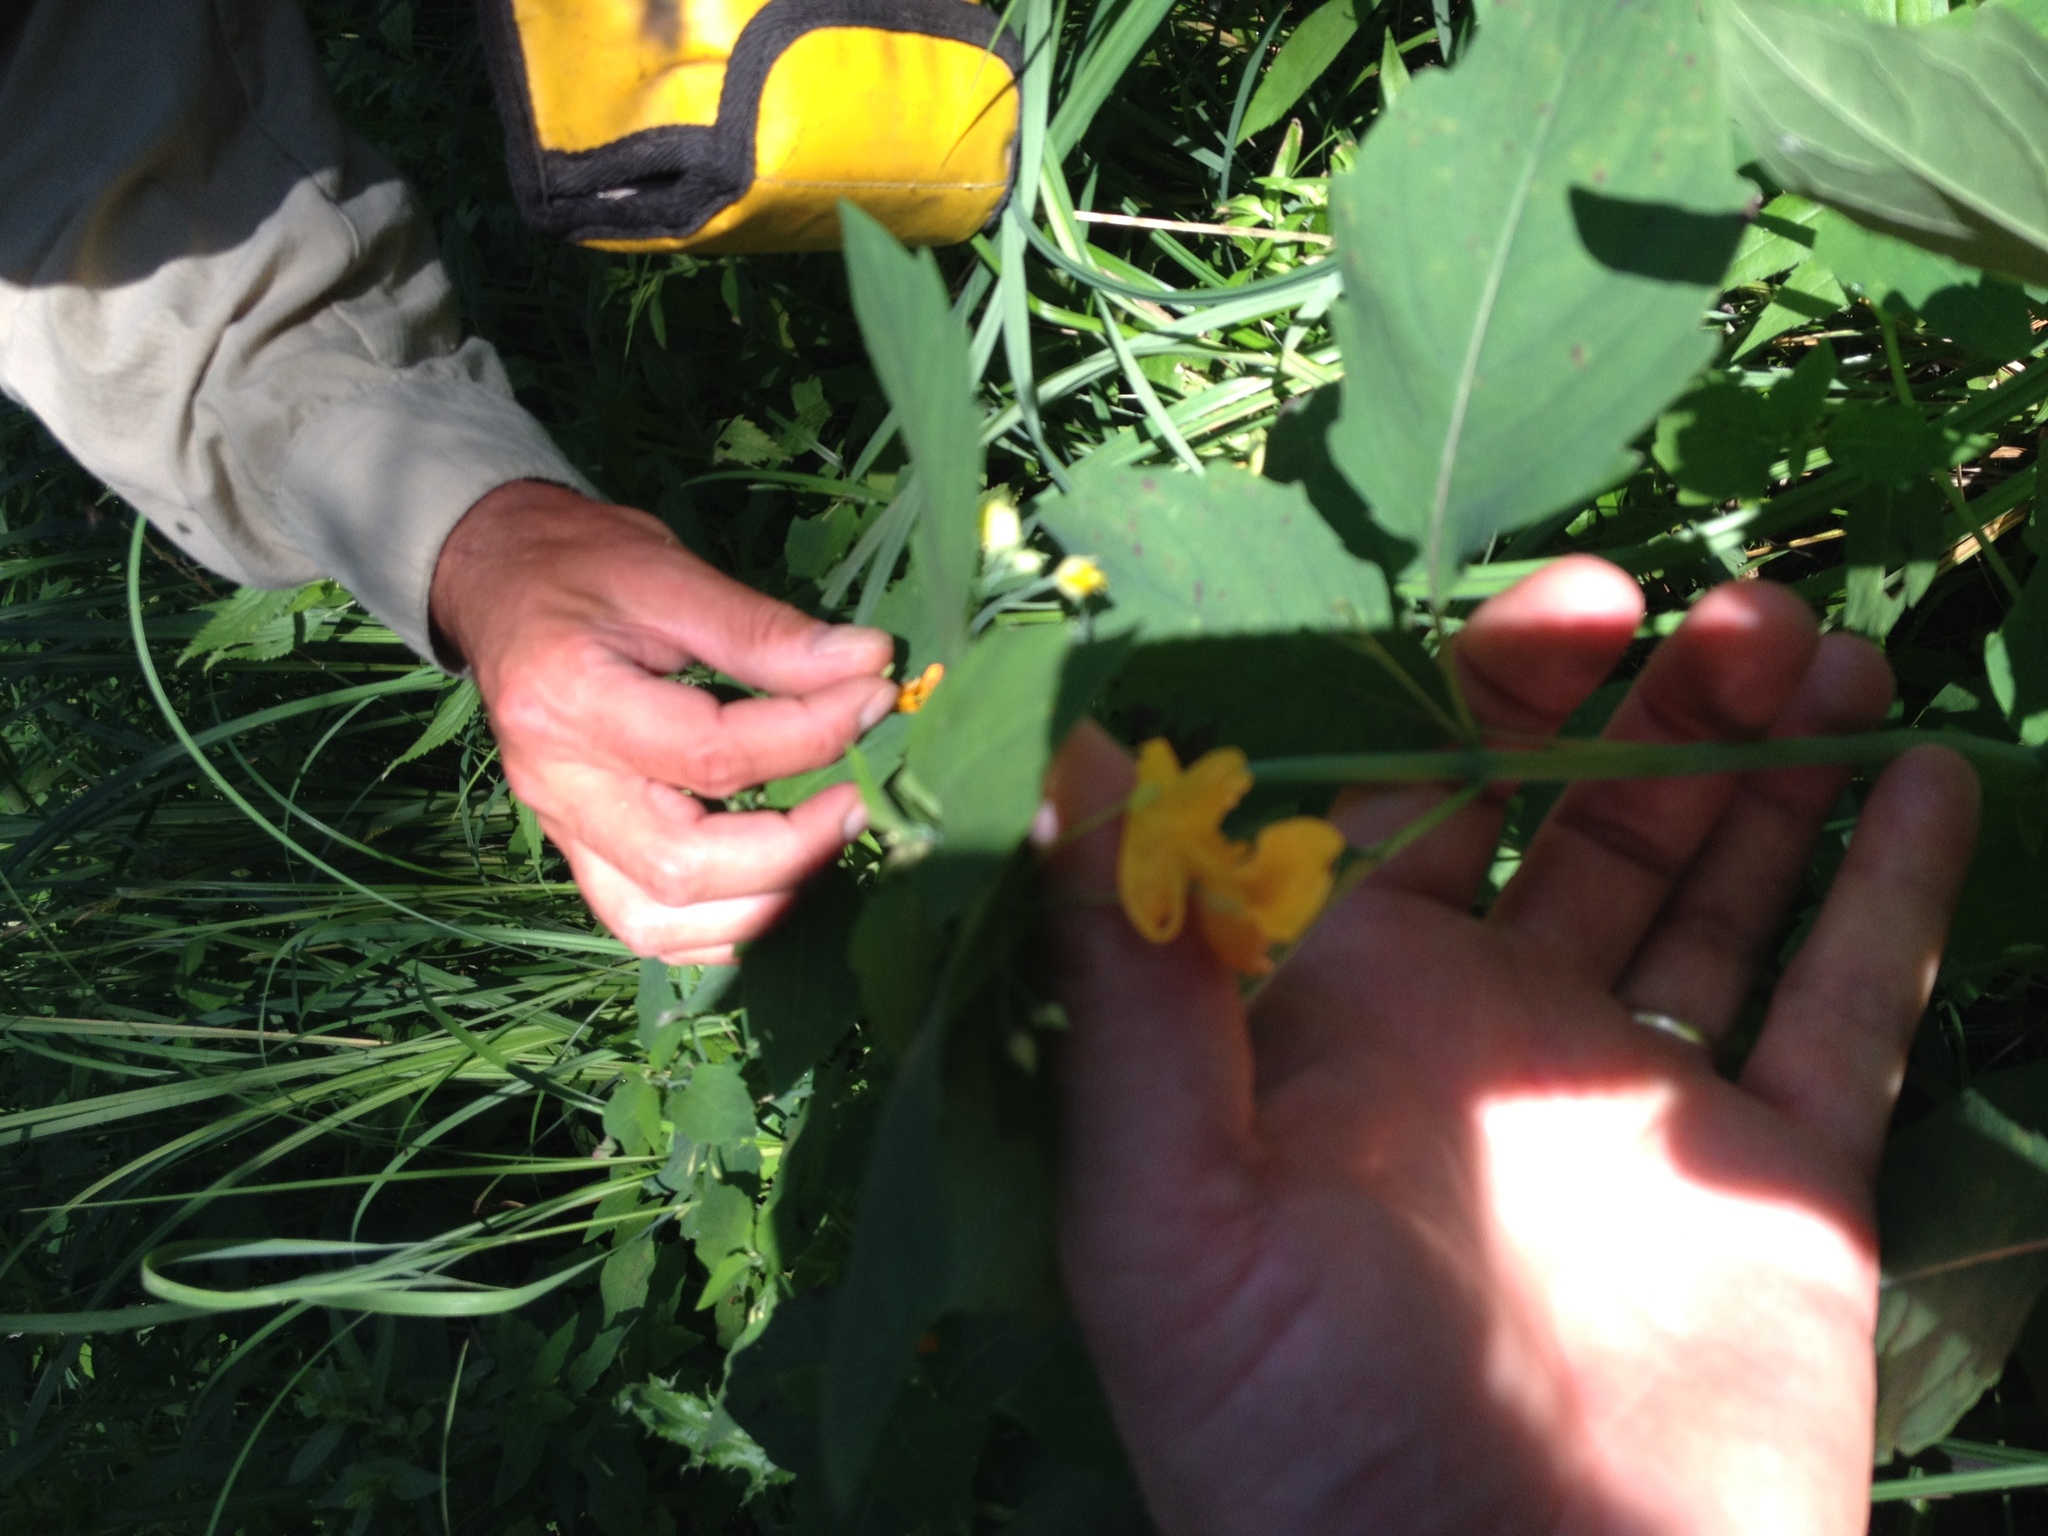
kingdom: Plantae
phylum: Tracheophyta
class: Magnoliopsida
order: Ericales
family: Balsaminaceae
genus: Impatiens
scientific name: Impatiens capensis
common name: Orange balsam
